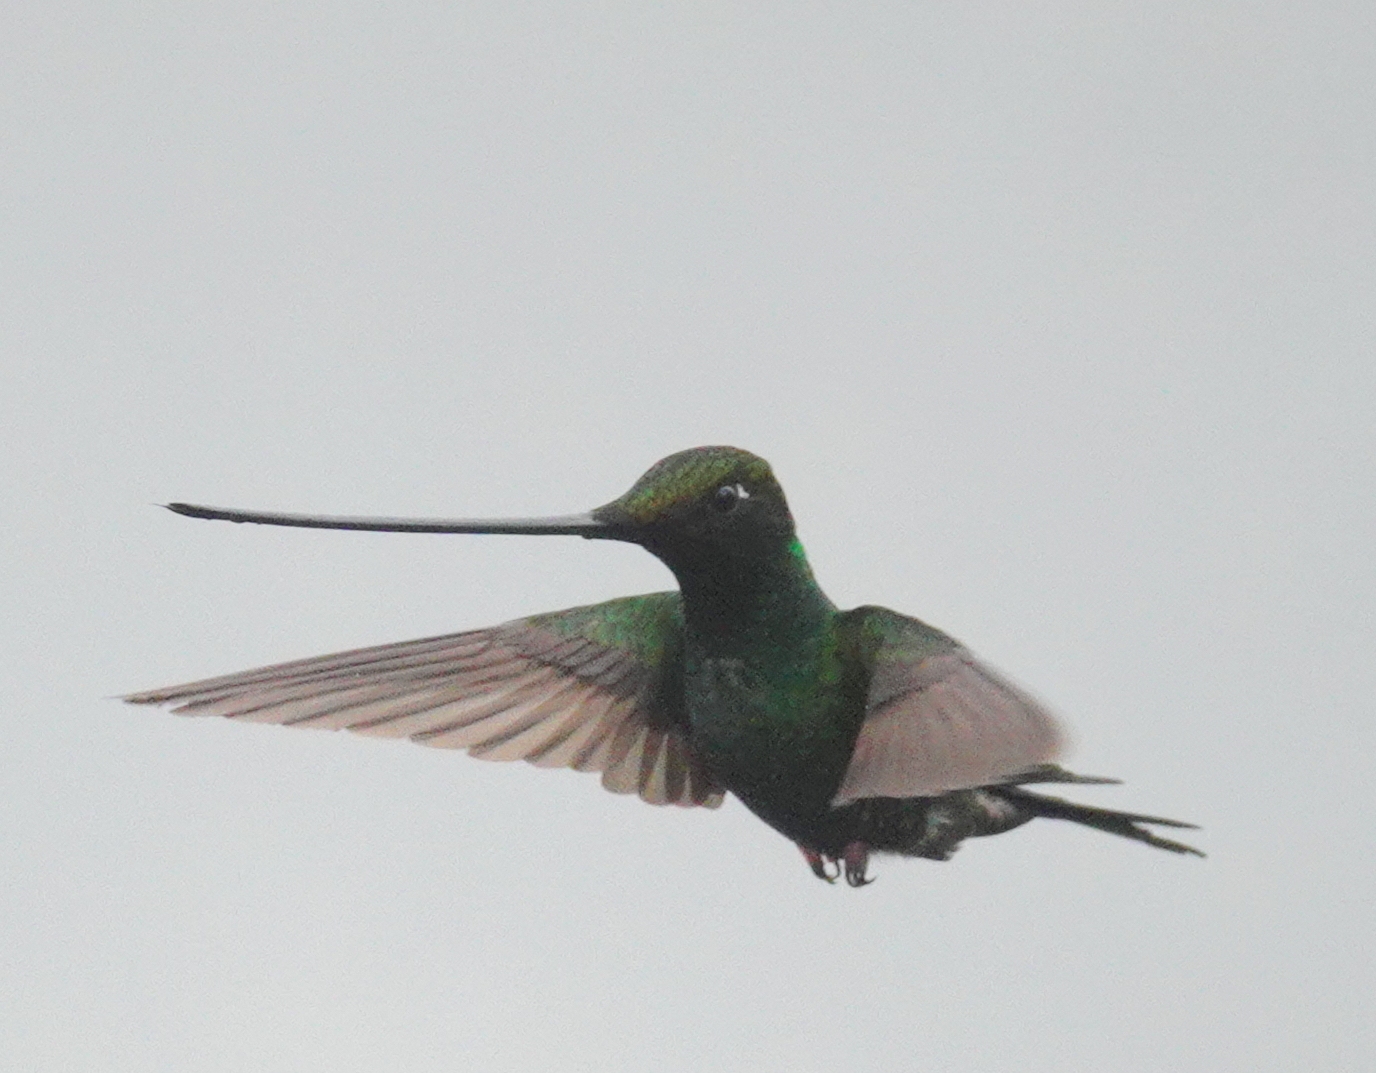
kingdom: Animalia
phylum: Chordata
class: Aves
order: Apodiformes
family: Trochilidae
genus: Ensifera
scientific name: Ensifera ensifera
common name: Sword-billed hummingbird
